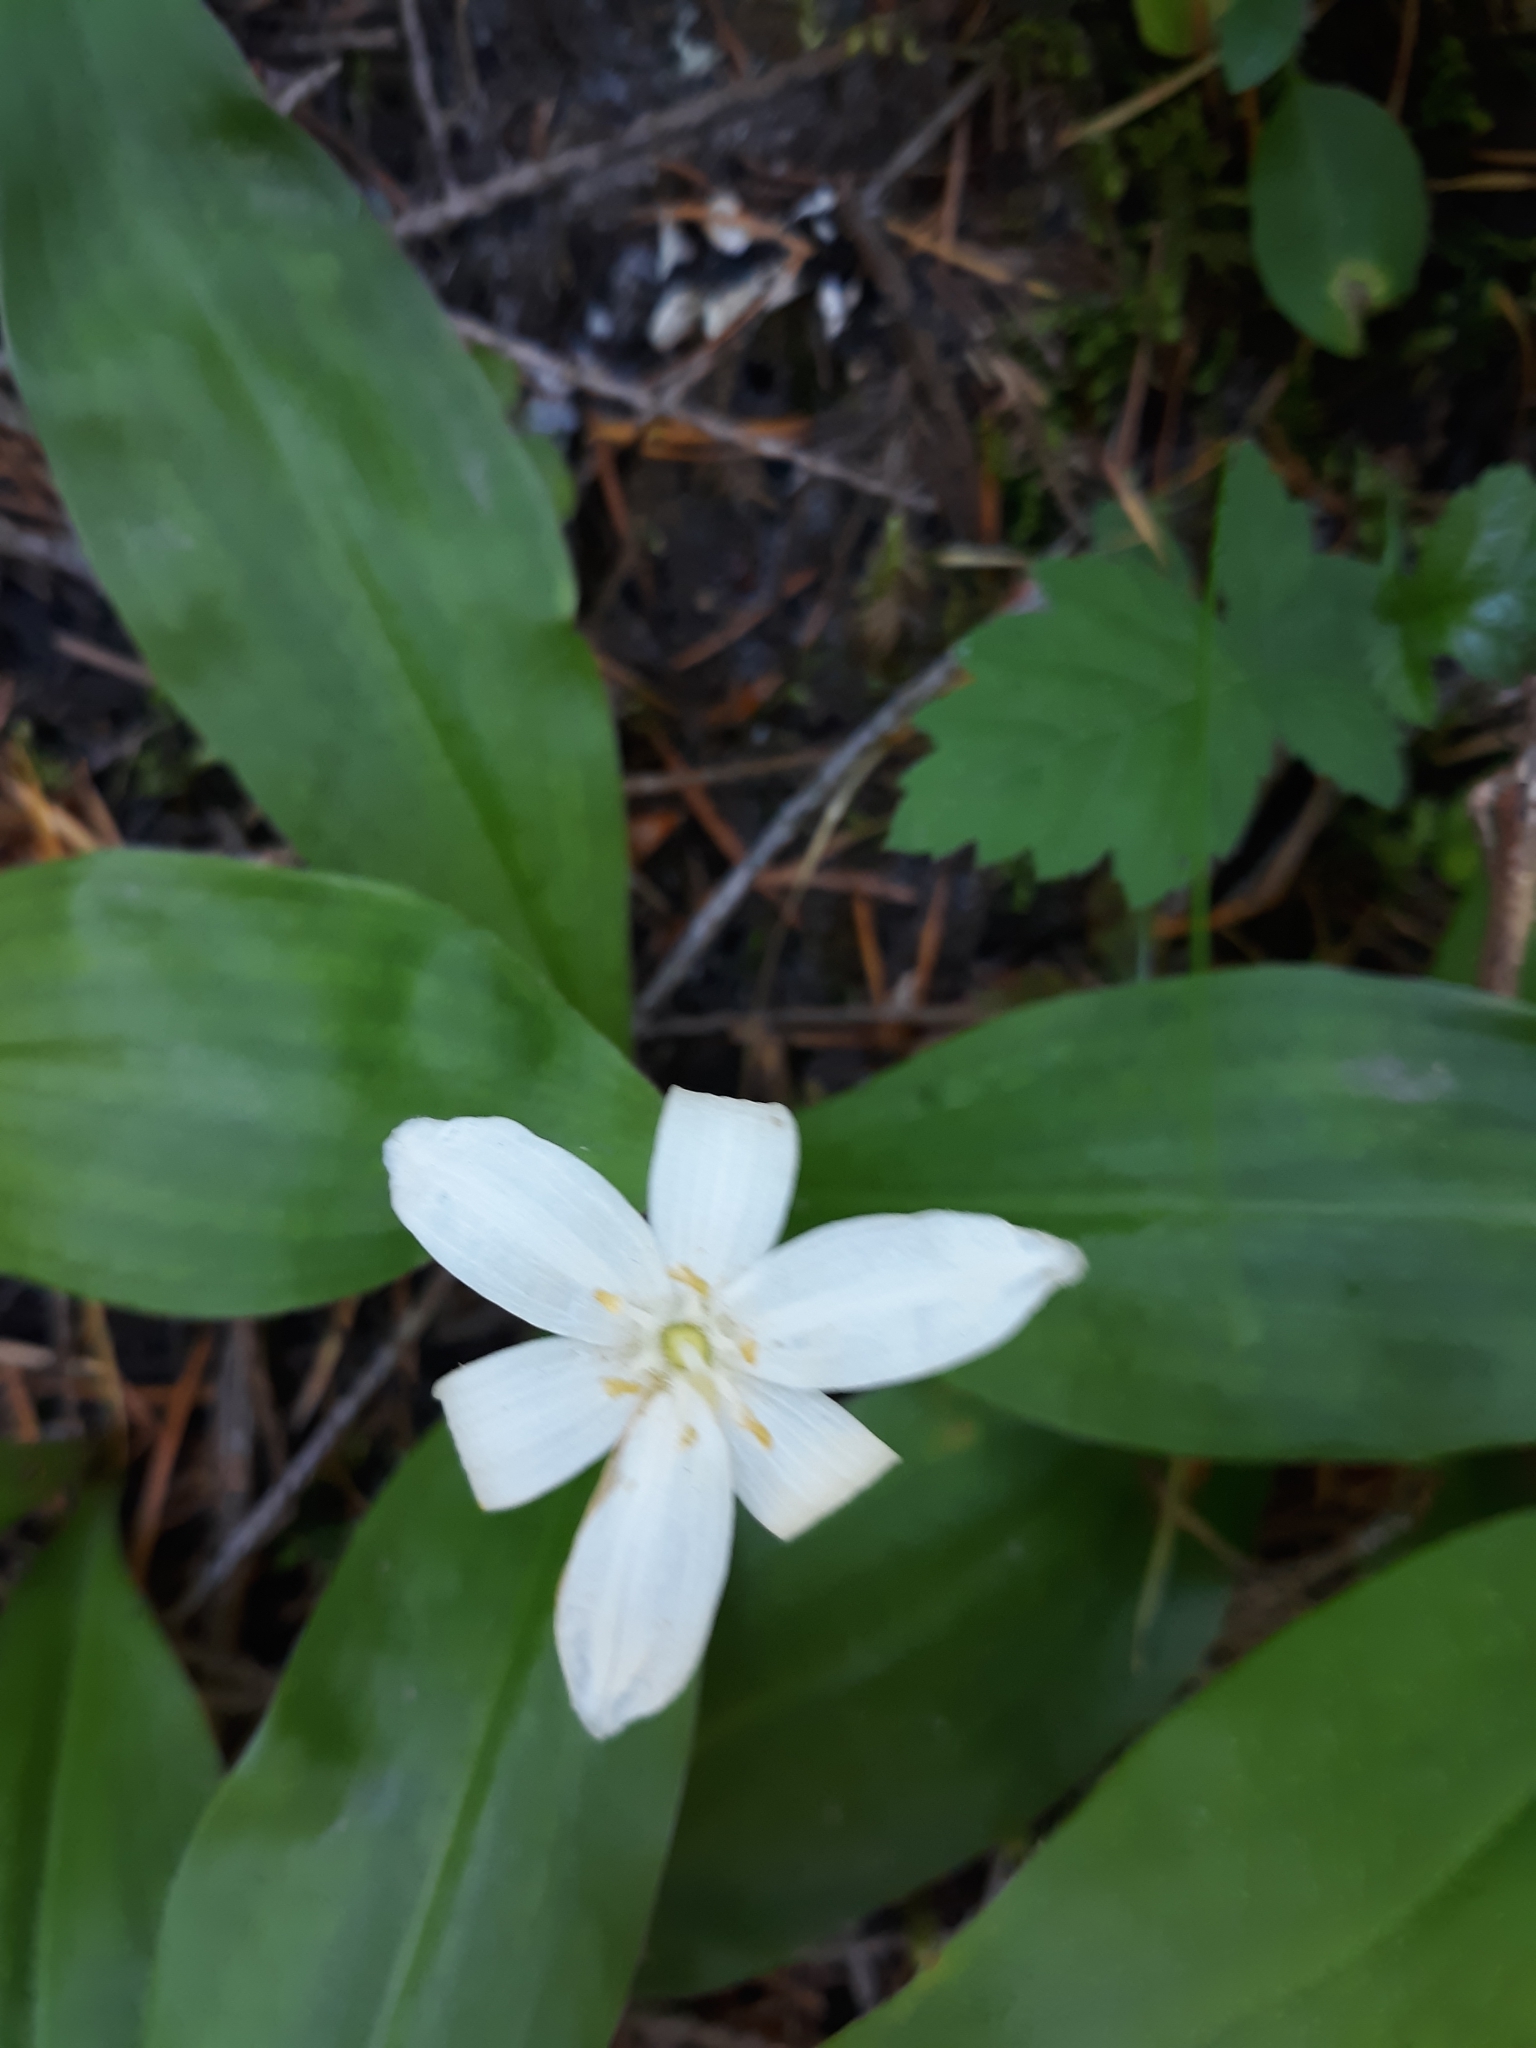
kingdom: Plantae
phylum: Tracheophyta
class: Liliopsida
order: Liliales
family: Liliaceae
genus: Clintonia
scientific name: Clintonia uniflora
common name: Queen's cup
